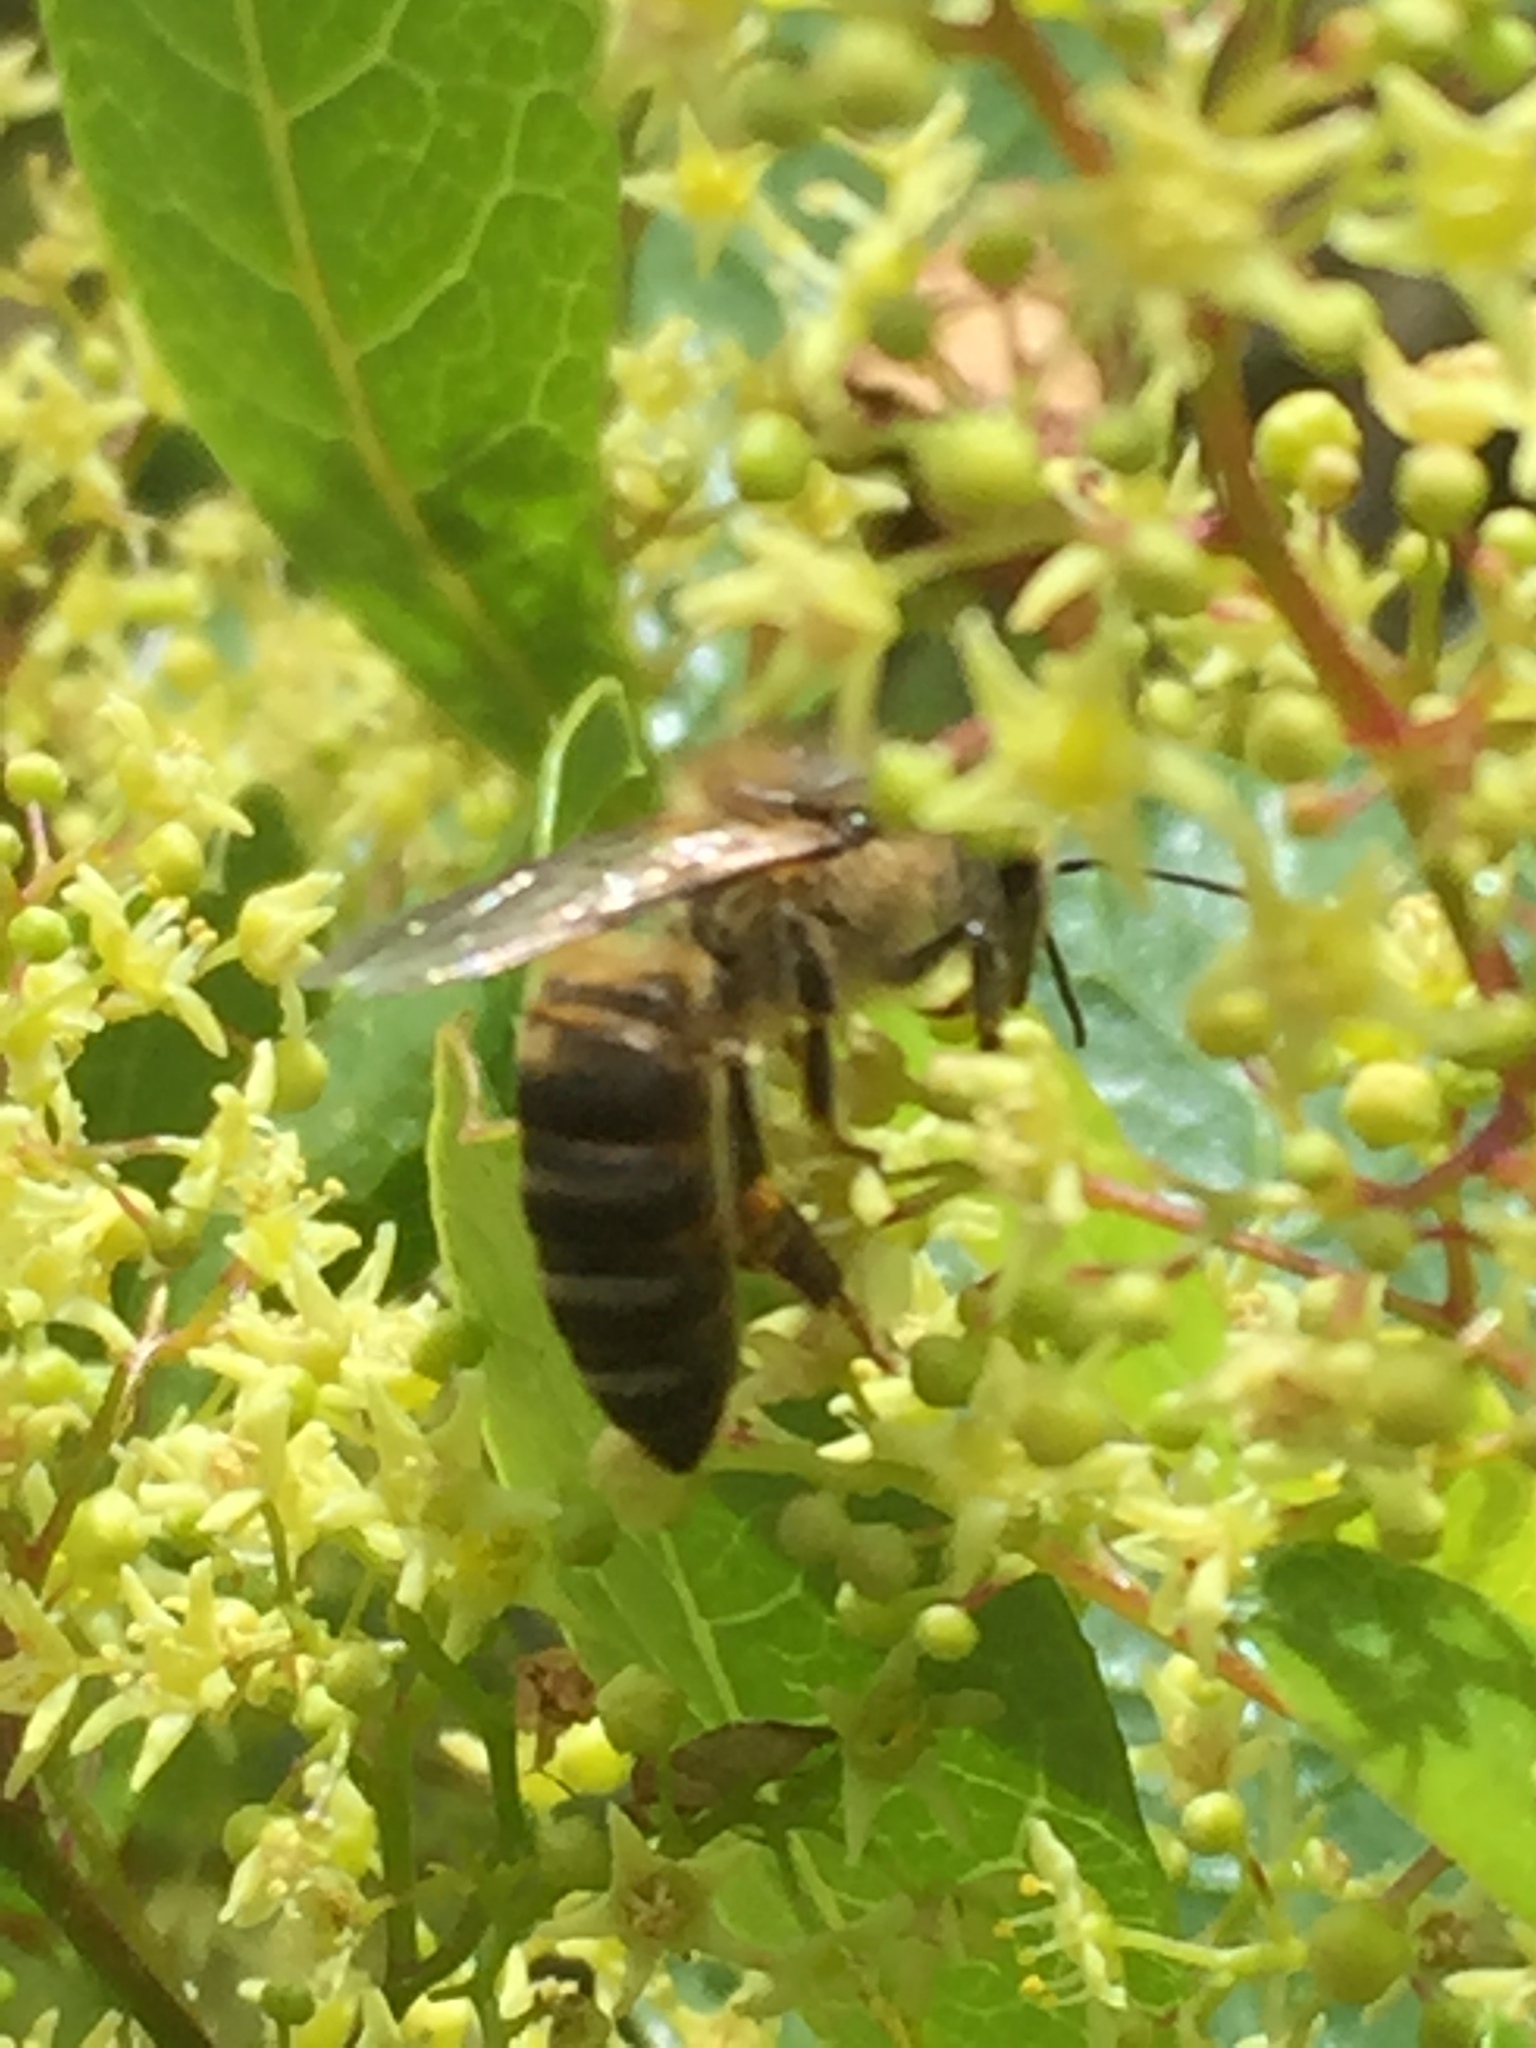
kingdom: Animalia
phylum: Arthropoda
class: Insecta
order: Hymenoptera
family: Apidae
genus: Apis
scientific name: Apis mellifera
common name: Honey bee
